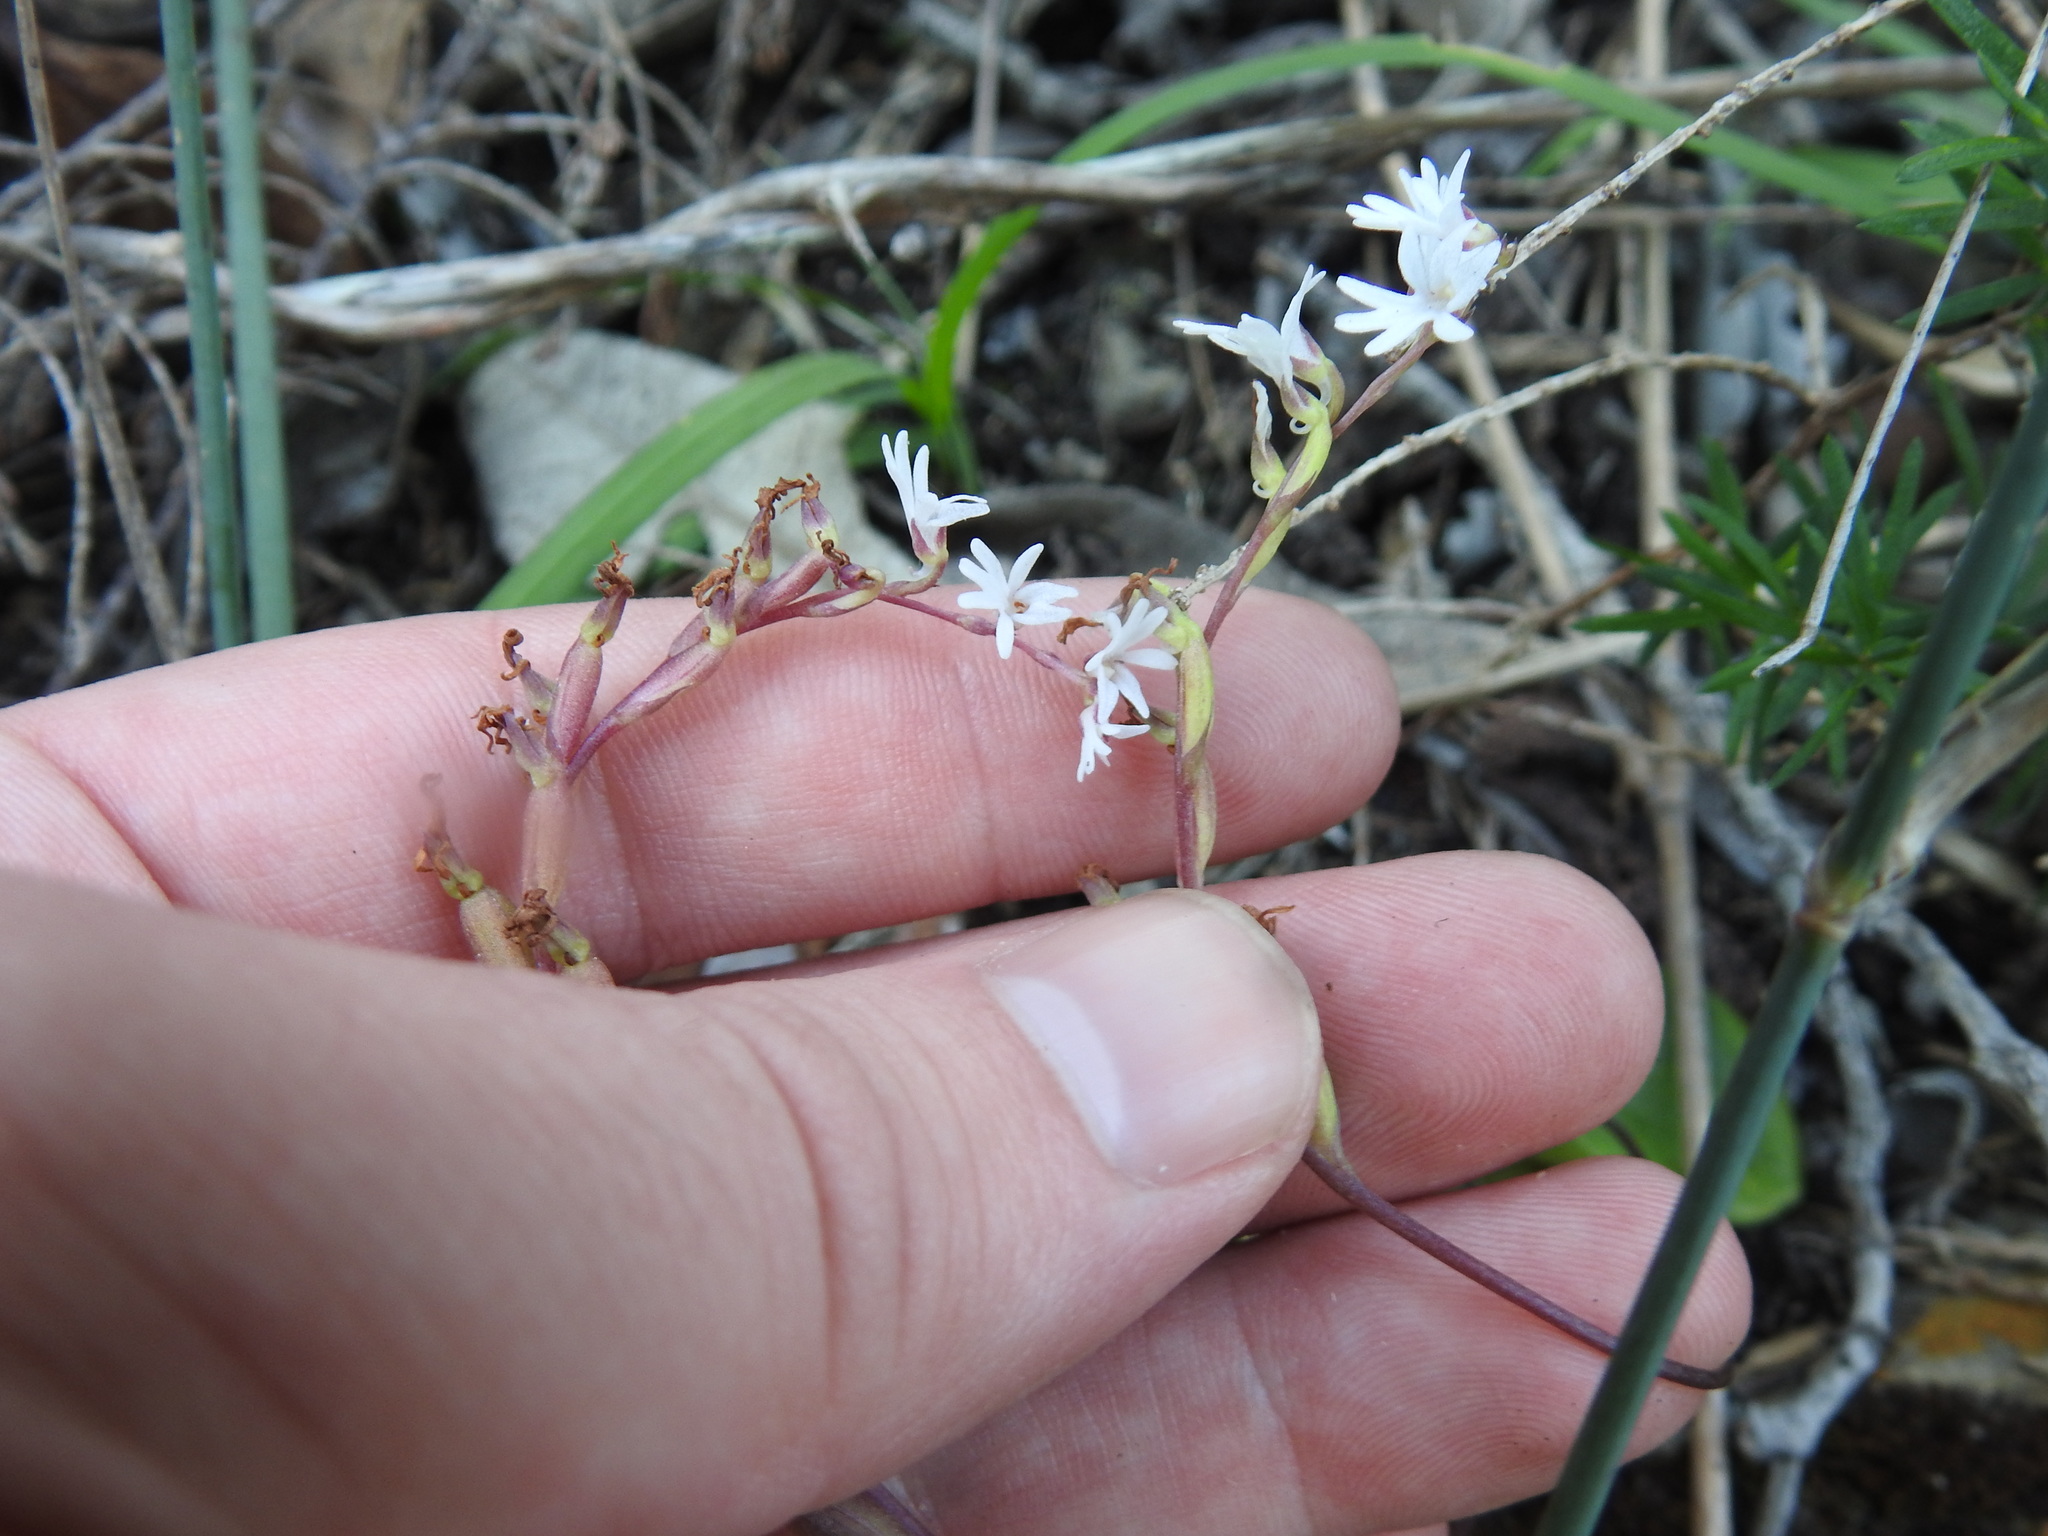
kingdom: Plantae
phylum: Tracheophyta
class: Liliopsida
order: Asparagales
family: Orchidaceae
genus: Holothrix
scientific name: Holothrix parviflora
